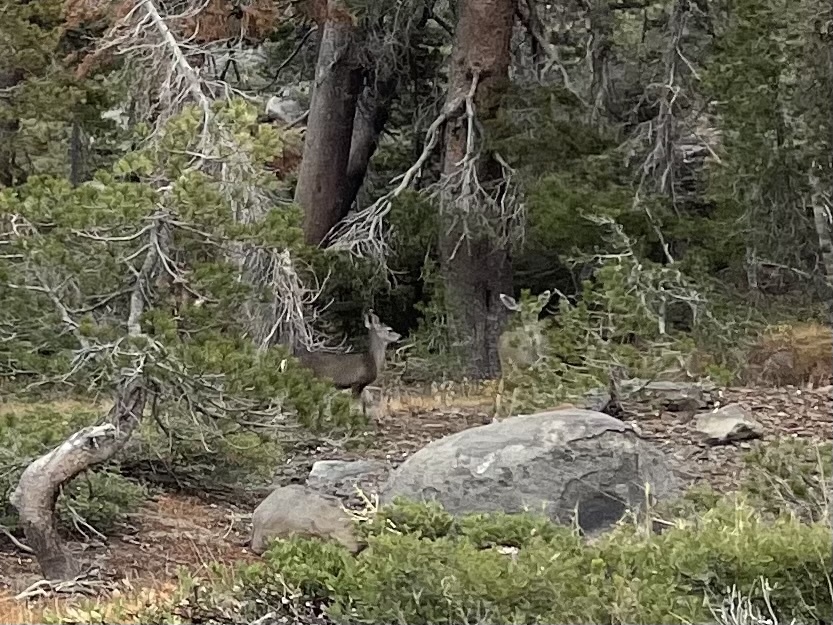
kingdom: Animalia
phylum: Chordata
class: Mammalia
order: Artiodactyla
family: Cervidae
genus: Odocoileus
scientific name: Odocoileus hemionus
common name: Mule deer
